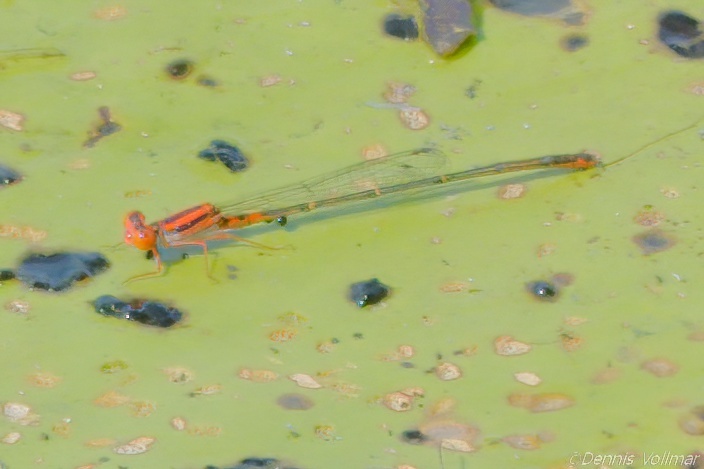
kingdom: Animalia
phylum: Arthropoda
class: Insecta
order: Odonata
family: Coenagrionidae
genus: Enallagma
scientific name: Enallagma concisum
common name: Cherry bluet
